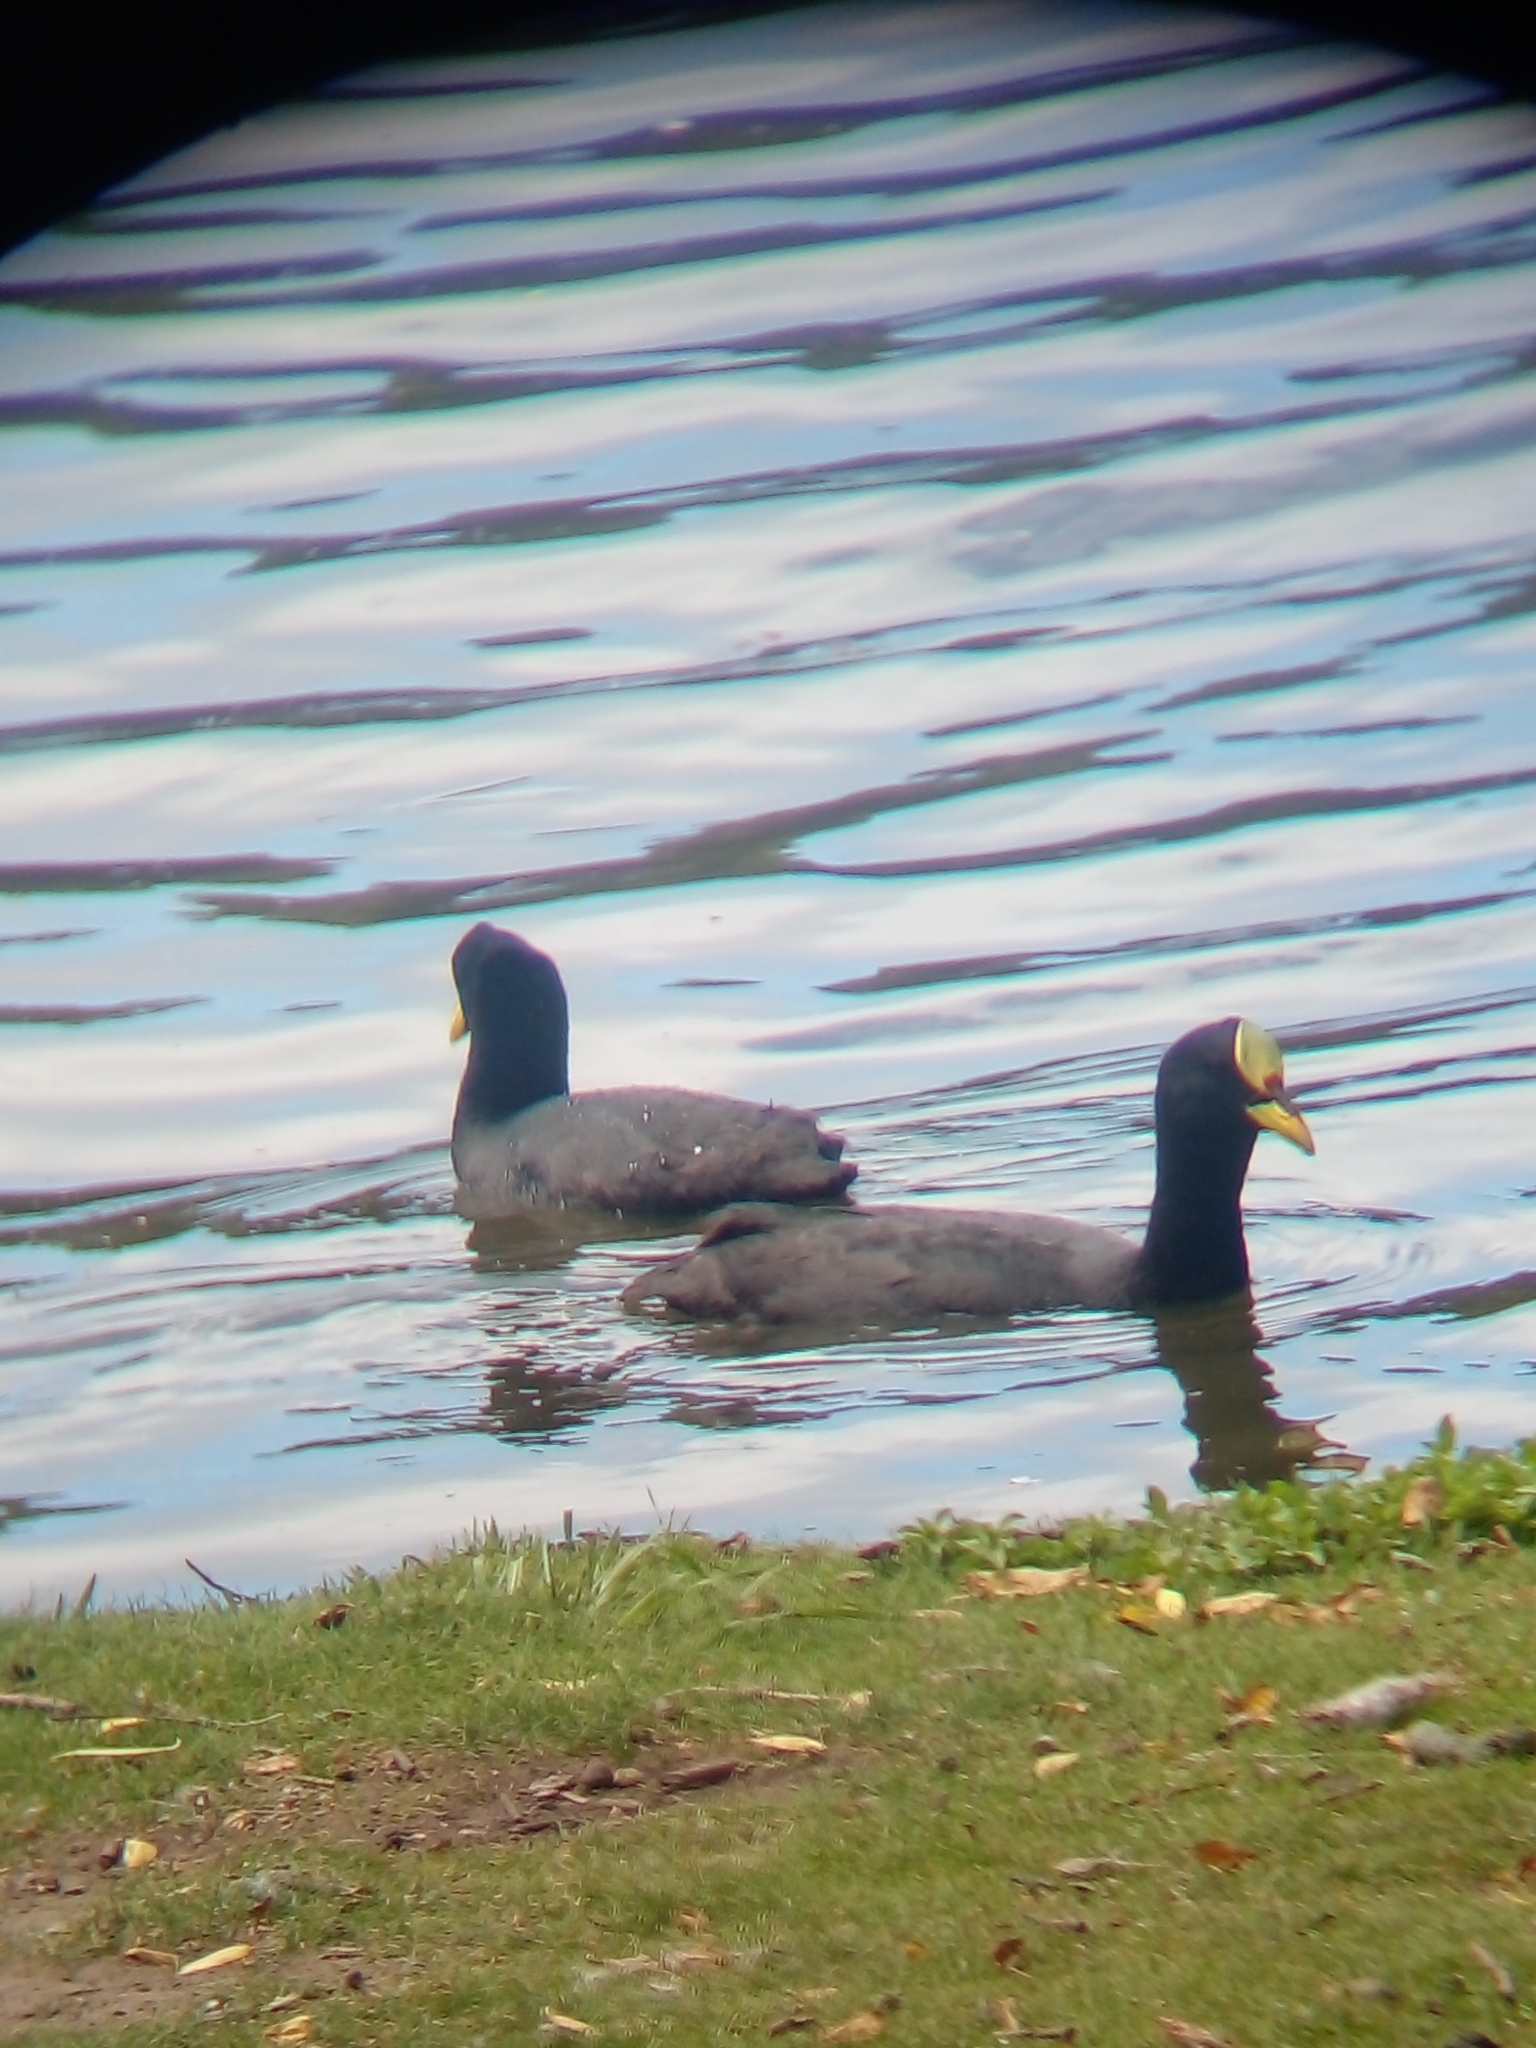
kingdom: Animalia
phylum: Chordata
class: Aves
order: Gruiformes
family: Rallidae
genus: Fulica
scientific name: Fulica armillata
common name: Red-gartered coot
